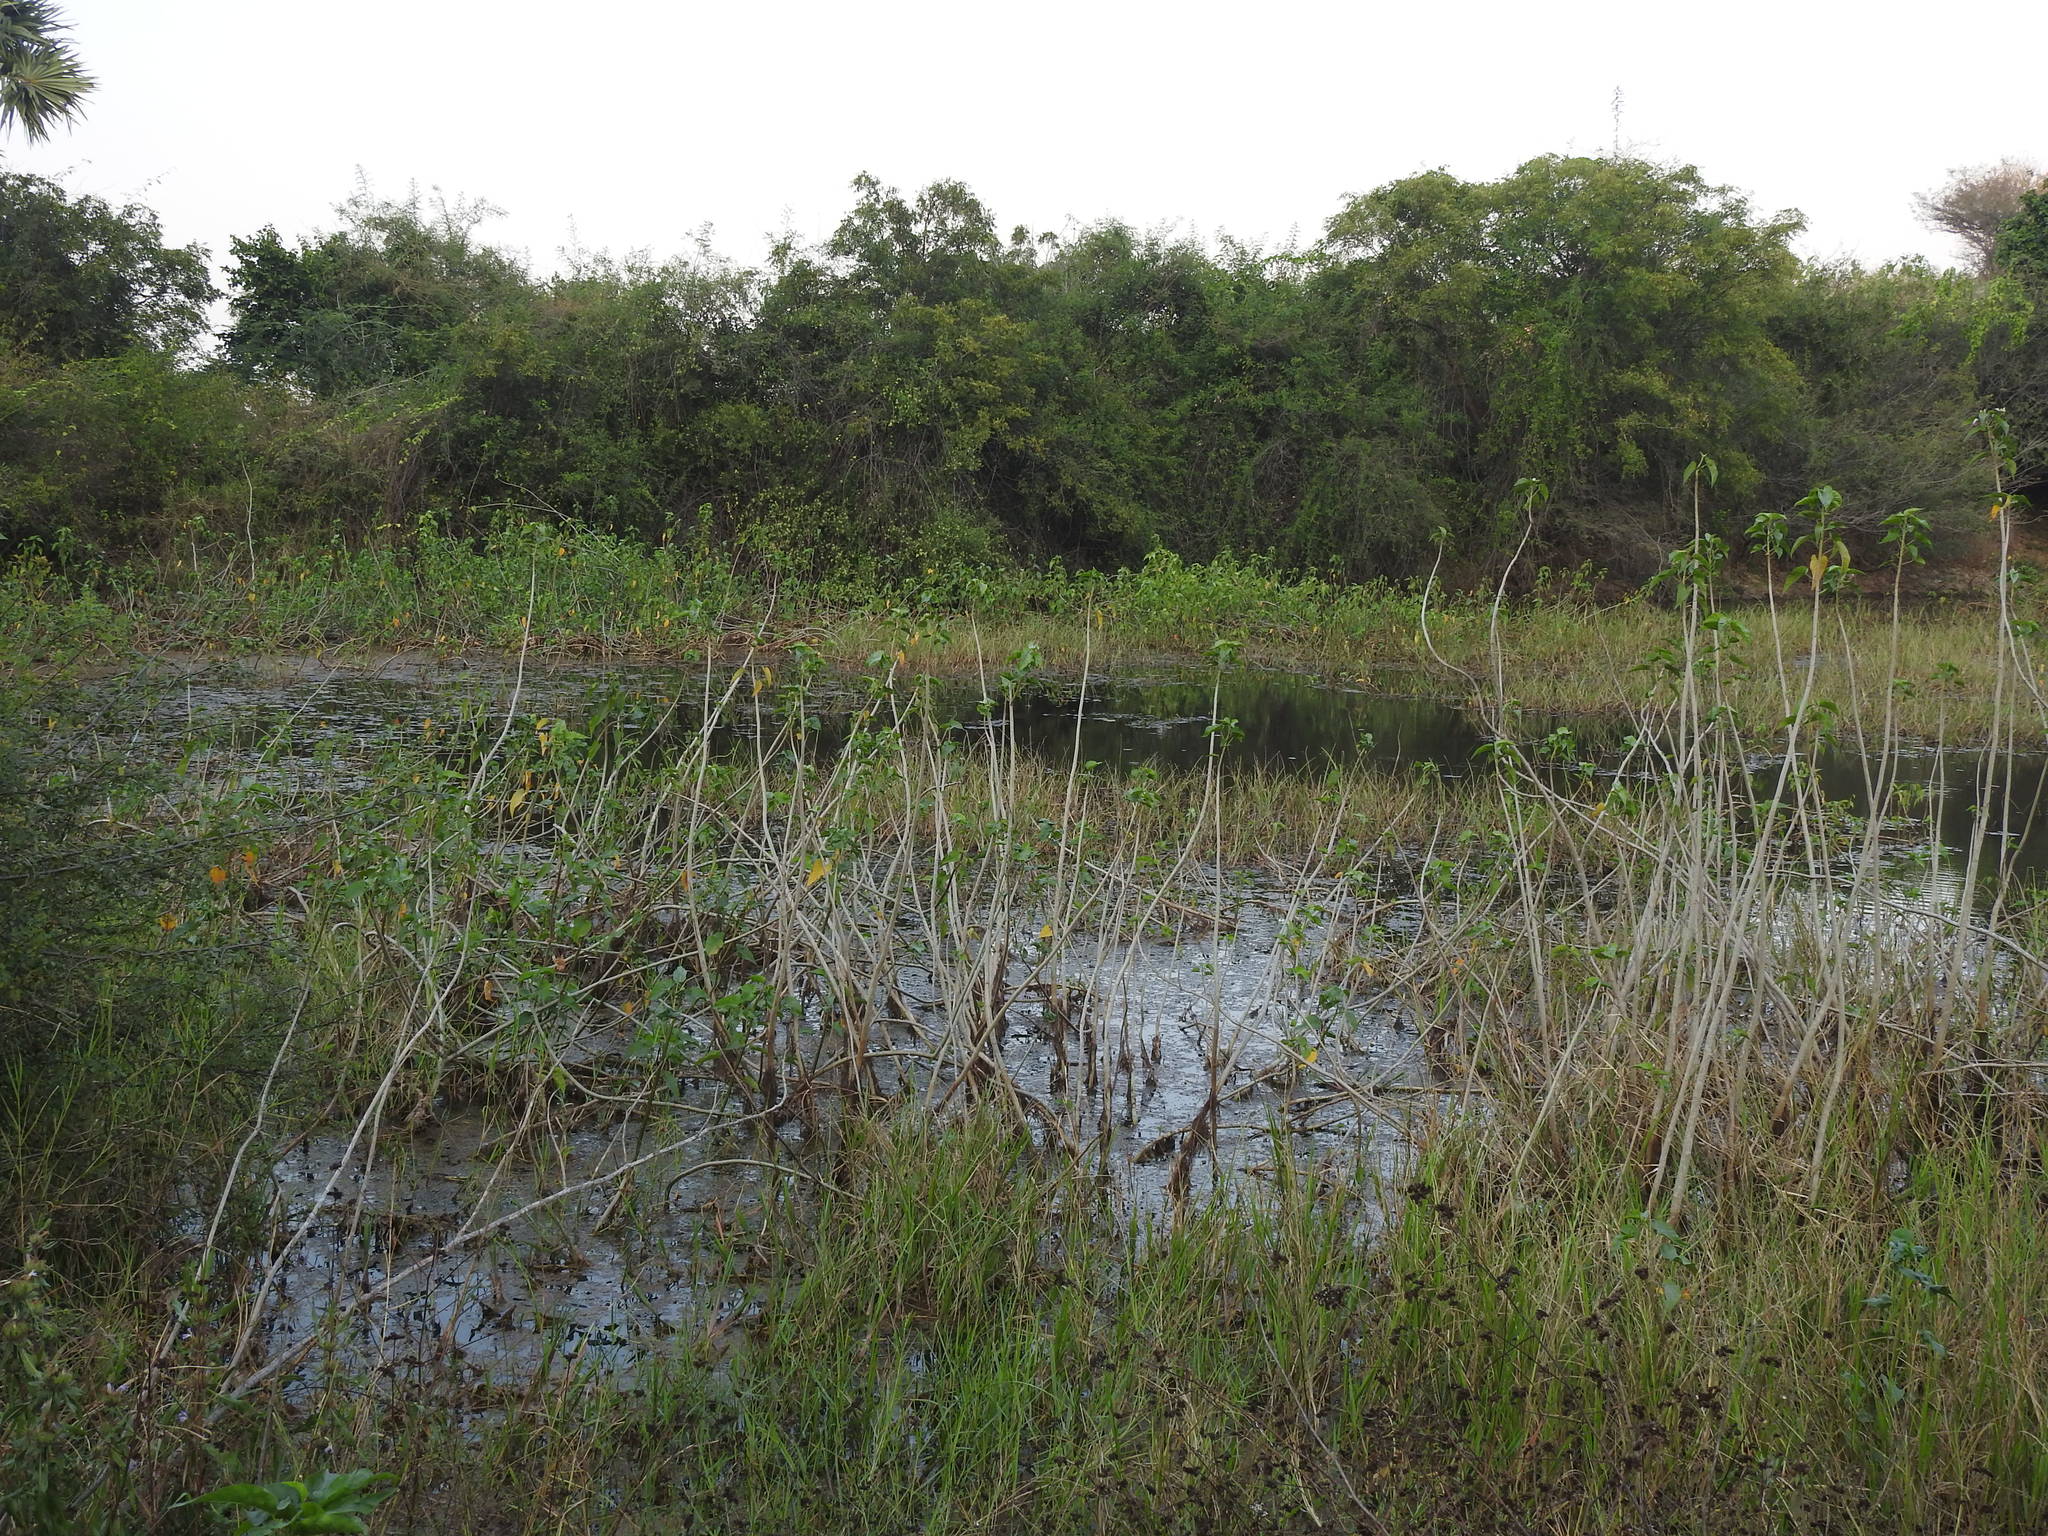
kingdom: Plantae
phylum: Tracheophyta
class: Magnoliopsida
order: Solanales
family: Convolvulaceae
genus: Ipomoea
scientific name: Ipomoea carnea
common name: Morning-glory
